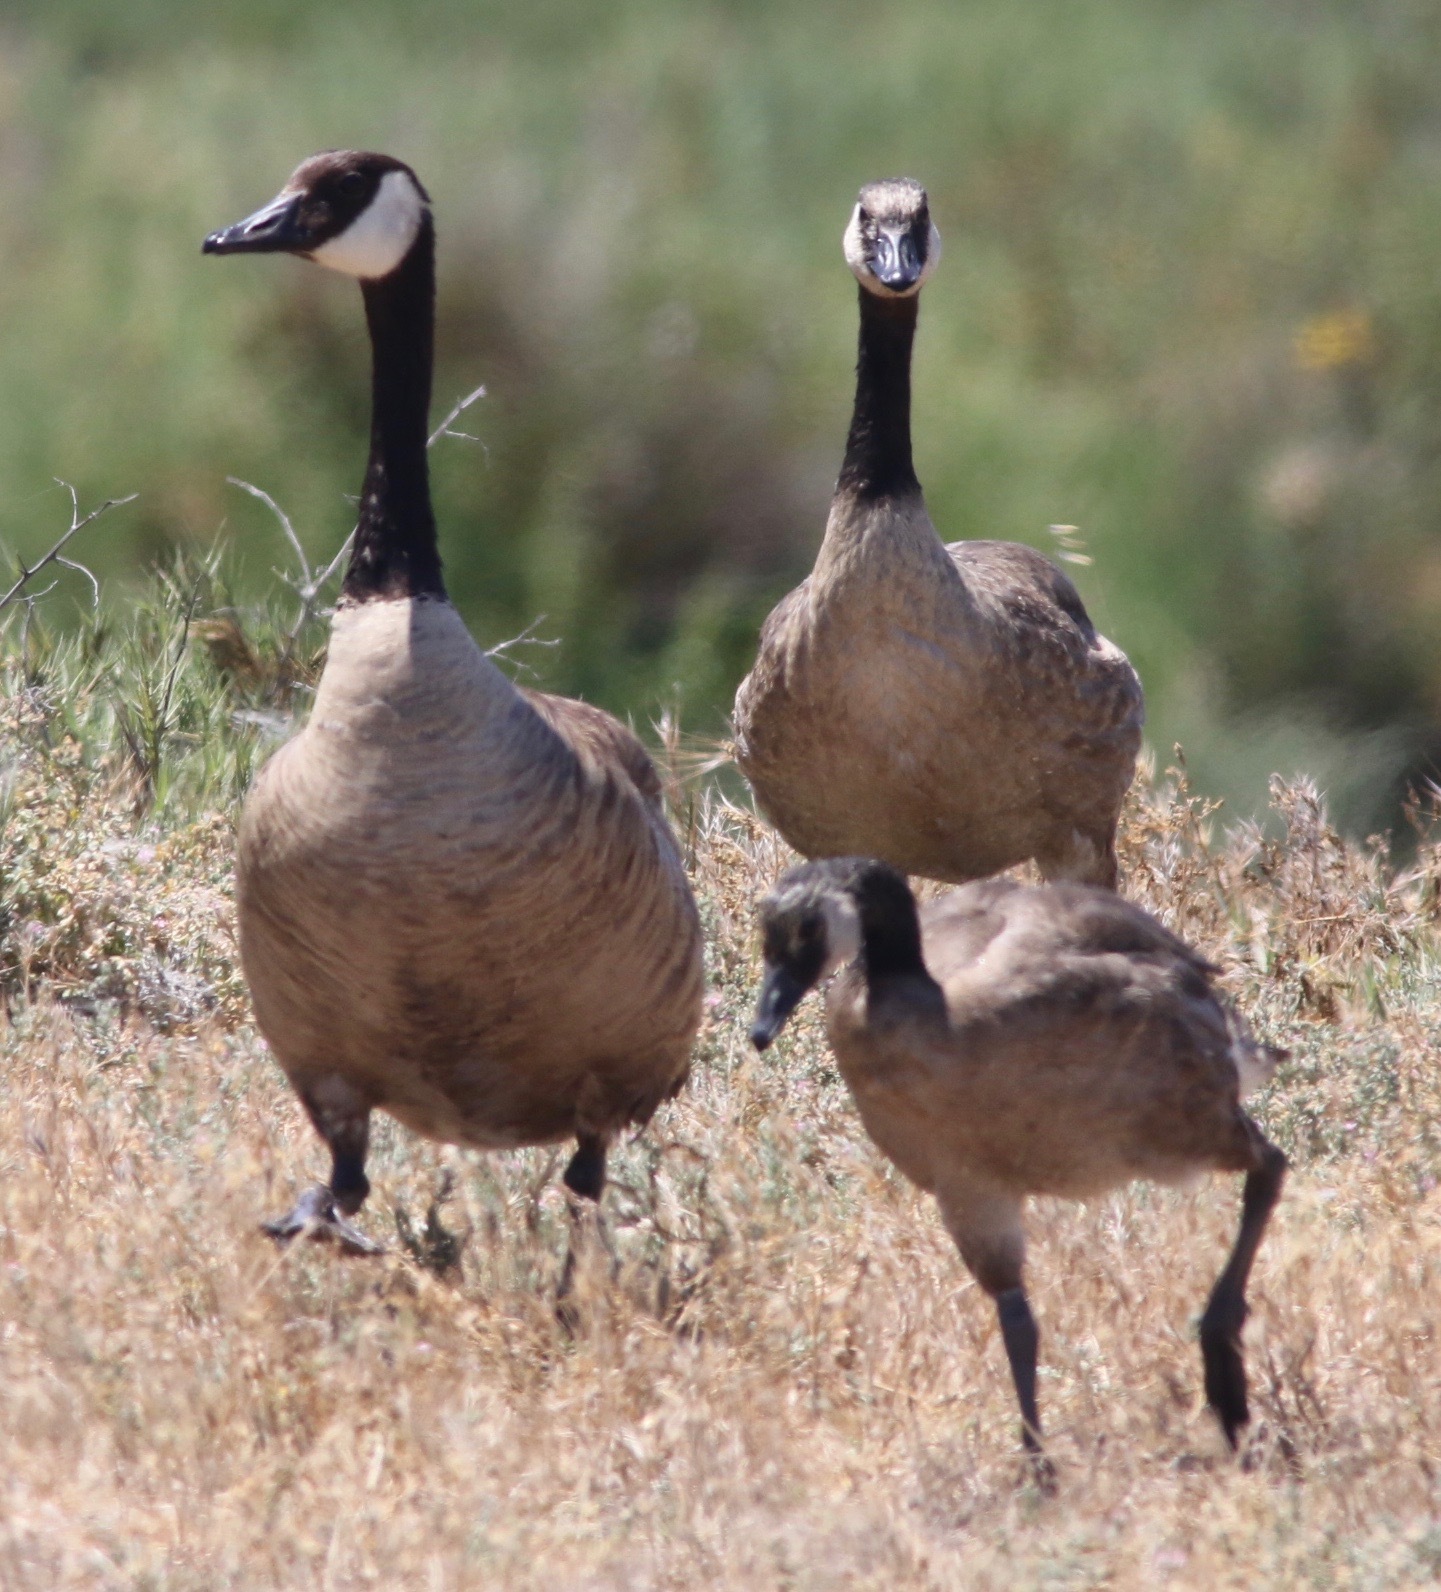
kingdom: Animalia
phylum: Chordata
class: Aves
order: Anseriformes
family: Anatidae
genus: Branta
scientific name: Branta canadensis
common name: Canada goose
